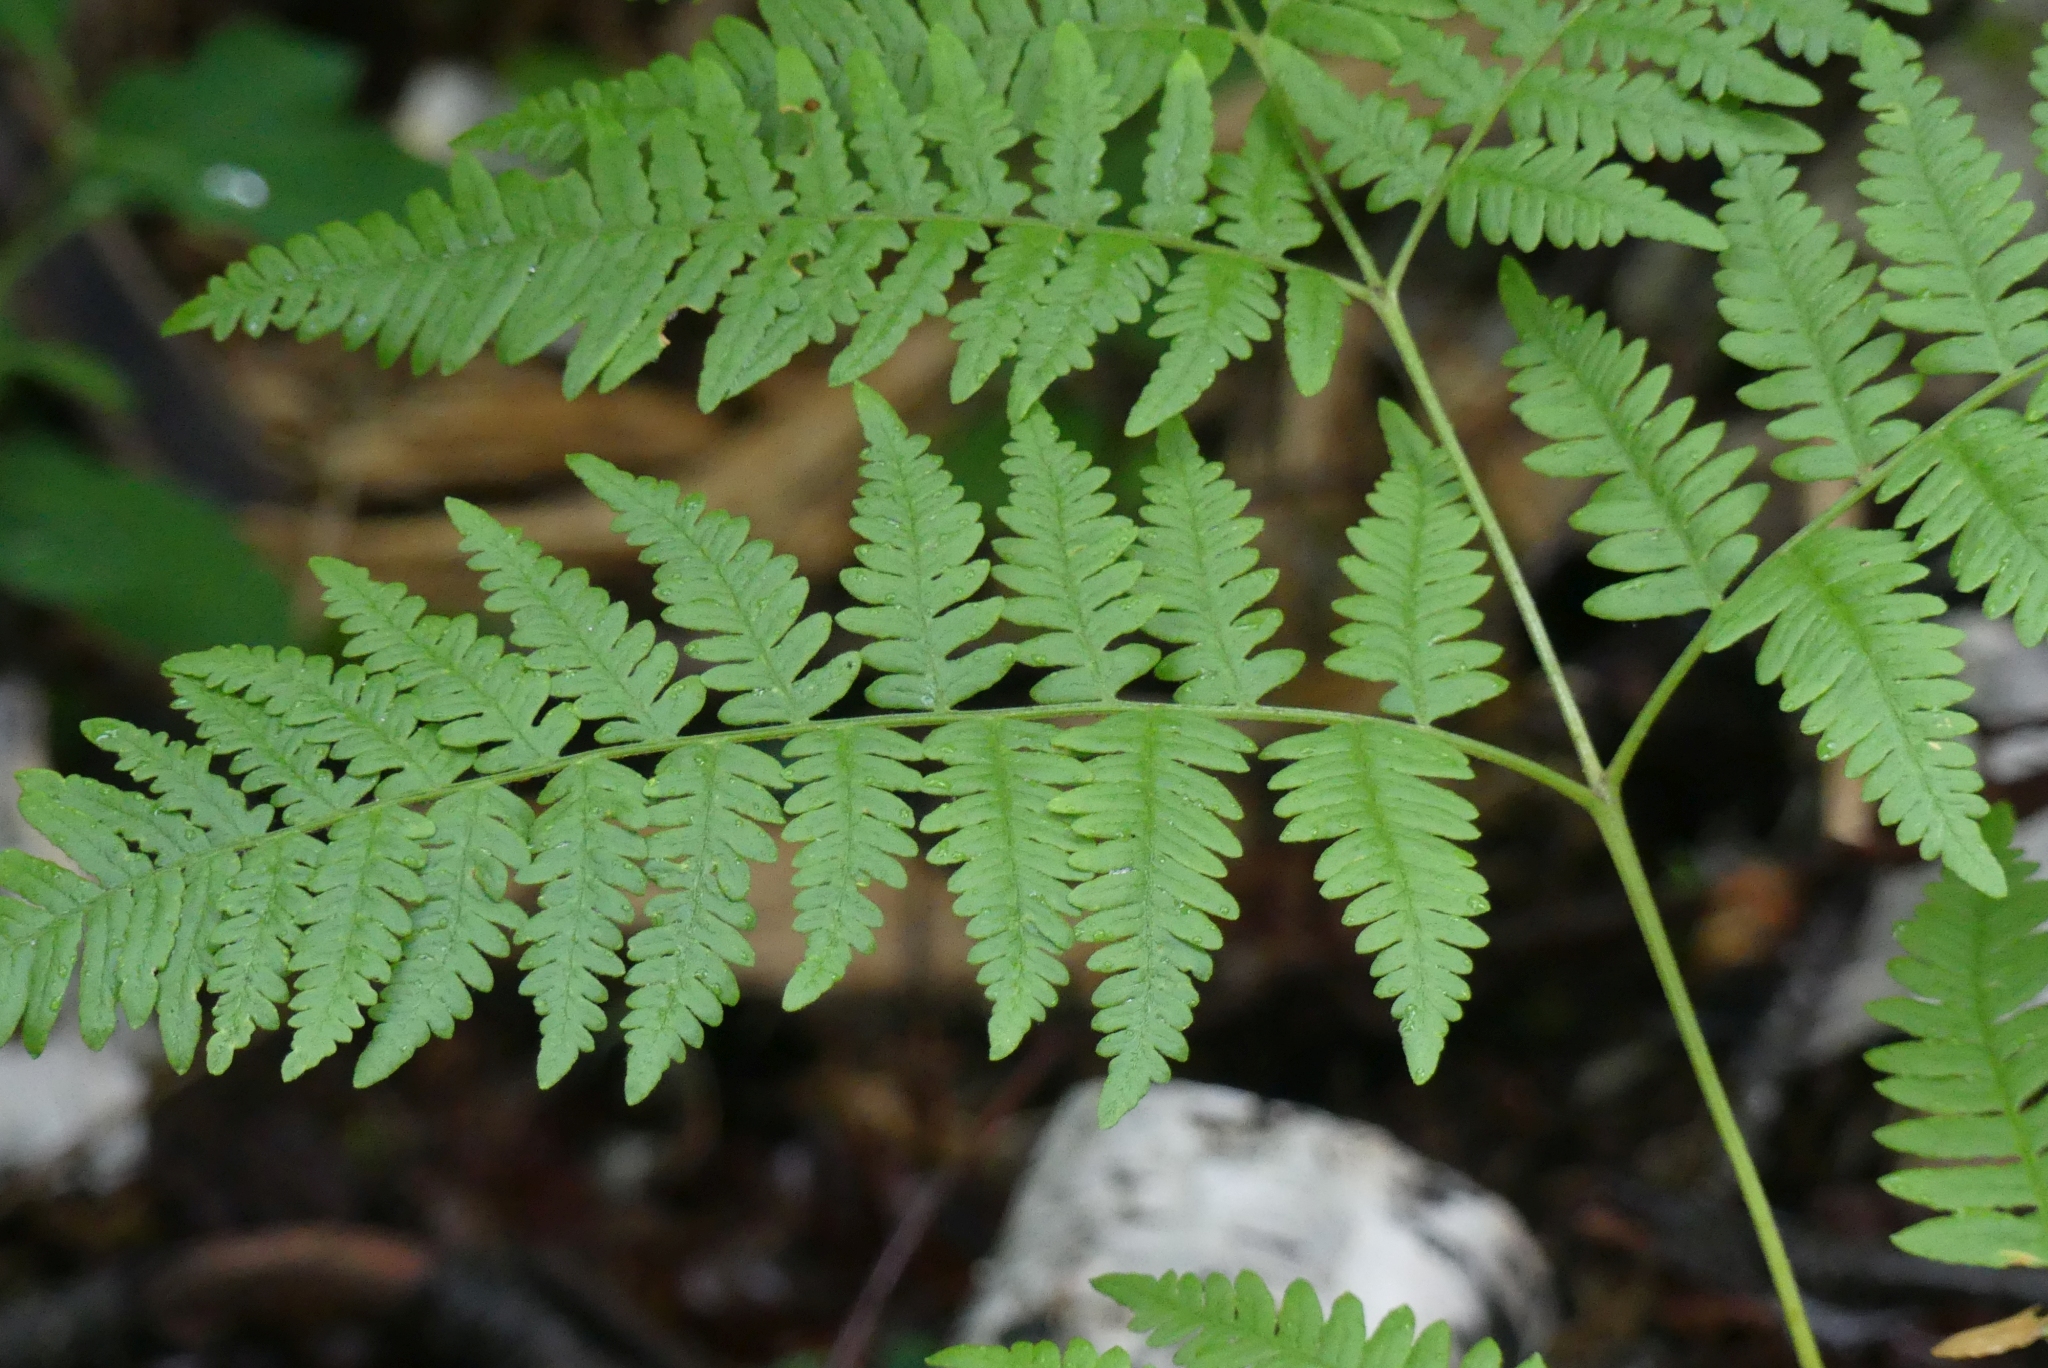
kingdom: Plantae
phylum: Tracheophyta
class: Polypodiopsida
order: Polypodiales
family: Dennstaedtiaceae
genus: Pteridium
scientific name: Pteridium aquilinum
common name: Bracken
